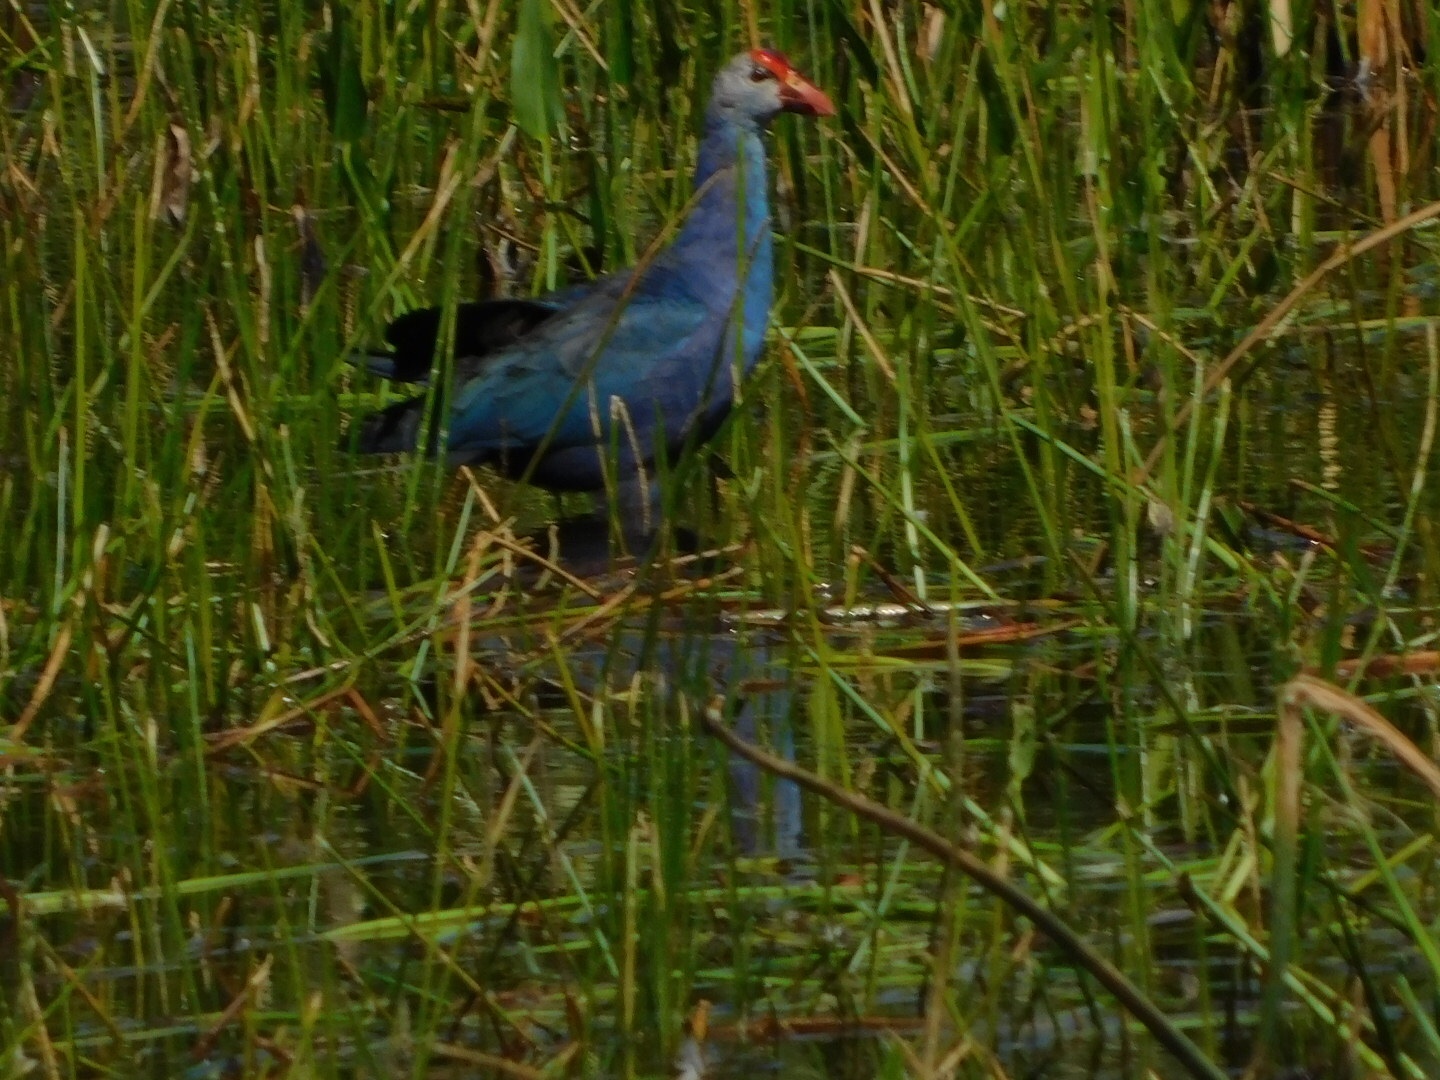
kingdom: Animalia
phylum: Chordata
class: Aves
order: Gruiformes
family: Rallidae
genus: Porphyrio
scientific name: Porphyrio porphyrio
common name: Purple swamphen
